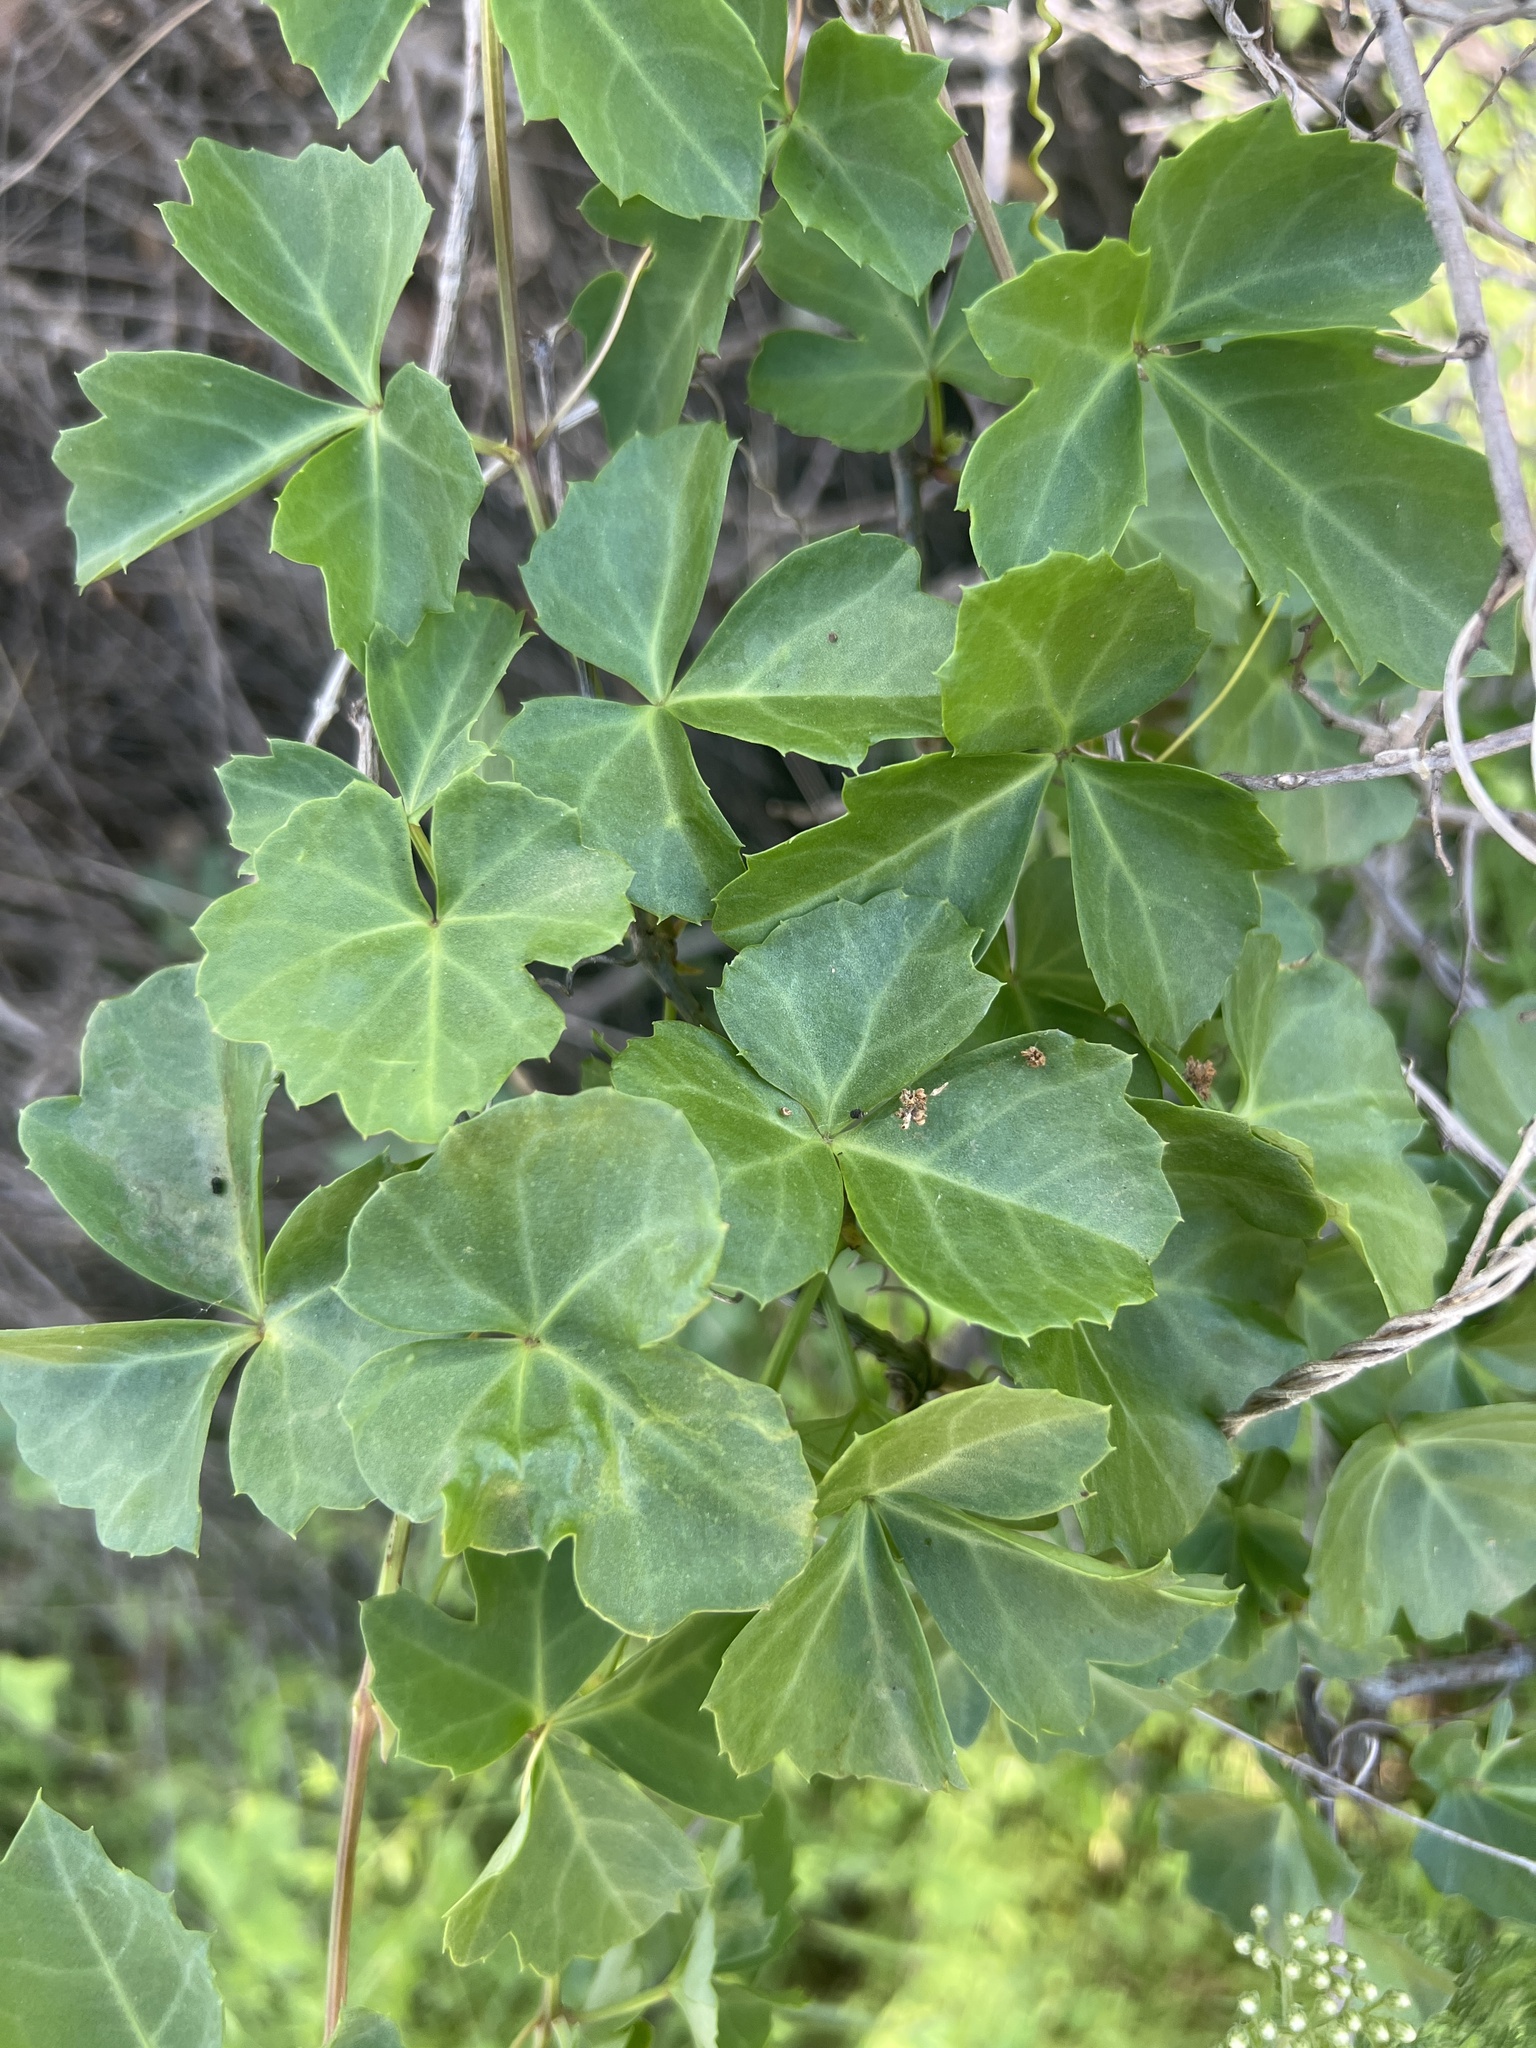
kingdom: Plantae
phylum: Tracheophyta
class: Magnoliopsida
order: Vitales
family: Vitaceae
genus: Cissus
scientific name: Cissus trifoliata
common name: Vine-sorrel
